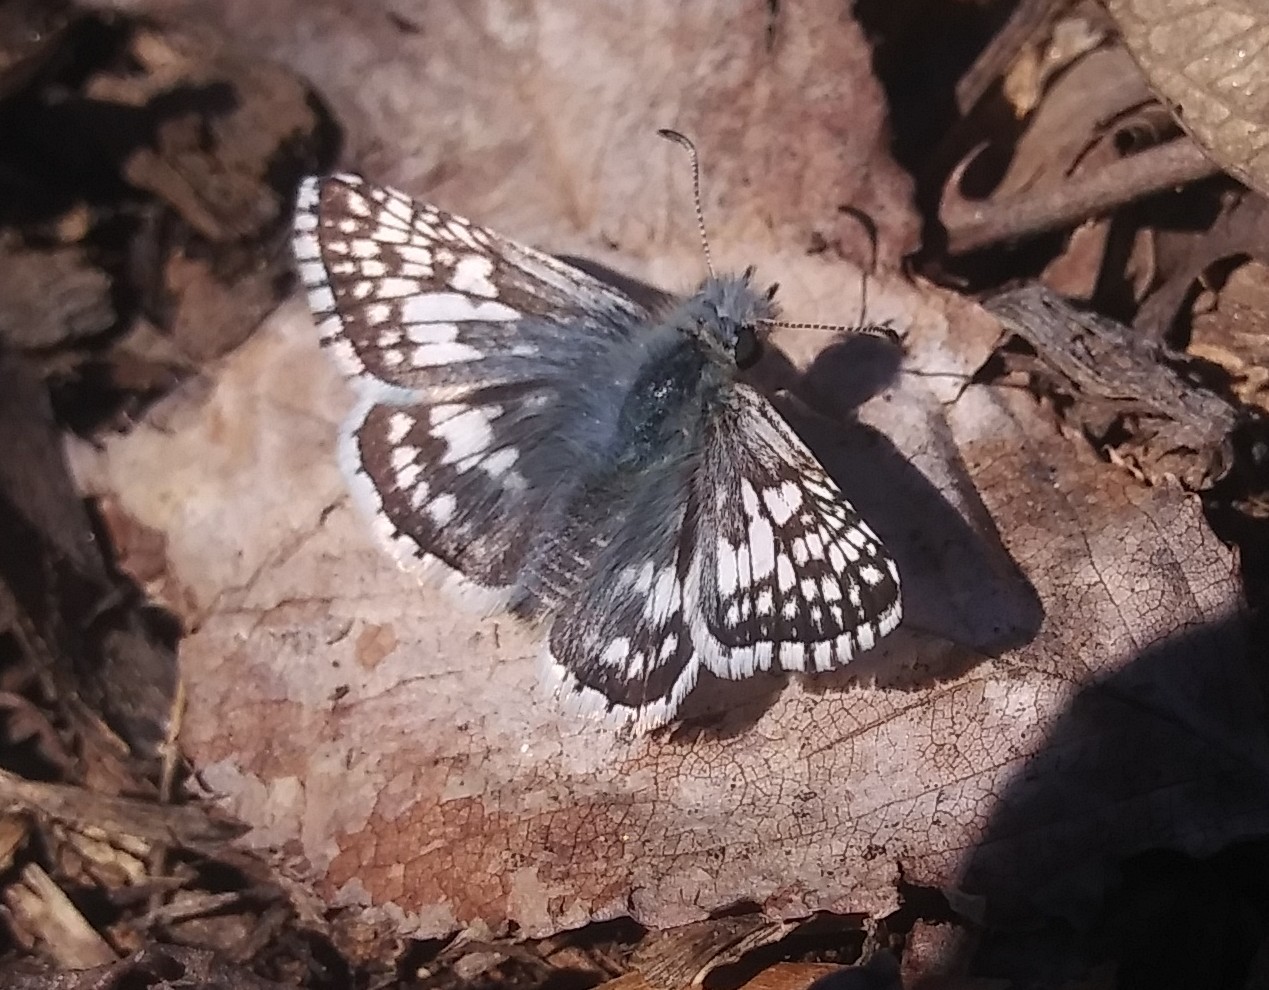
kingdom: Animalia
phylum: Arthropoda
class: Insecta
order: Lepidoptera
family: Hesperiidae
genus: Burnsius
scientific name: Burnsius communis
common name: Common checkered-skipper
